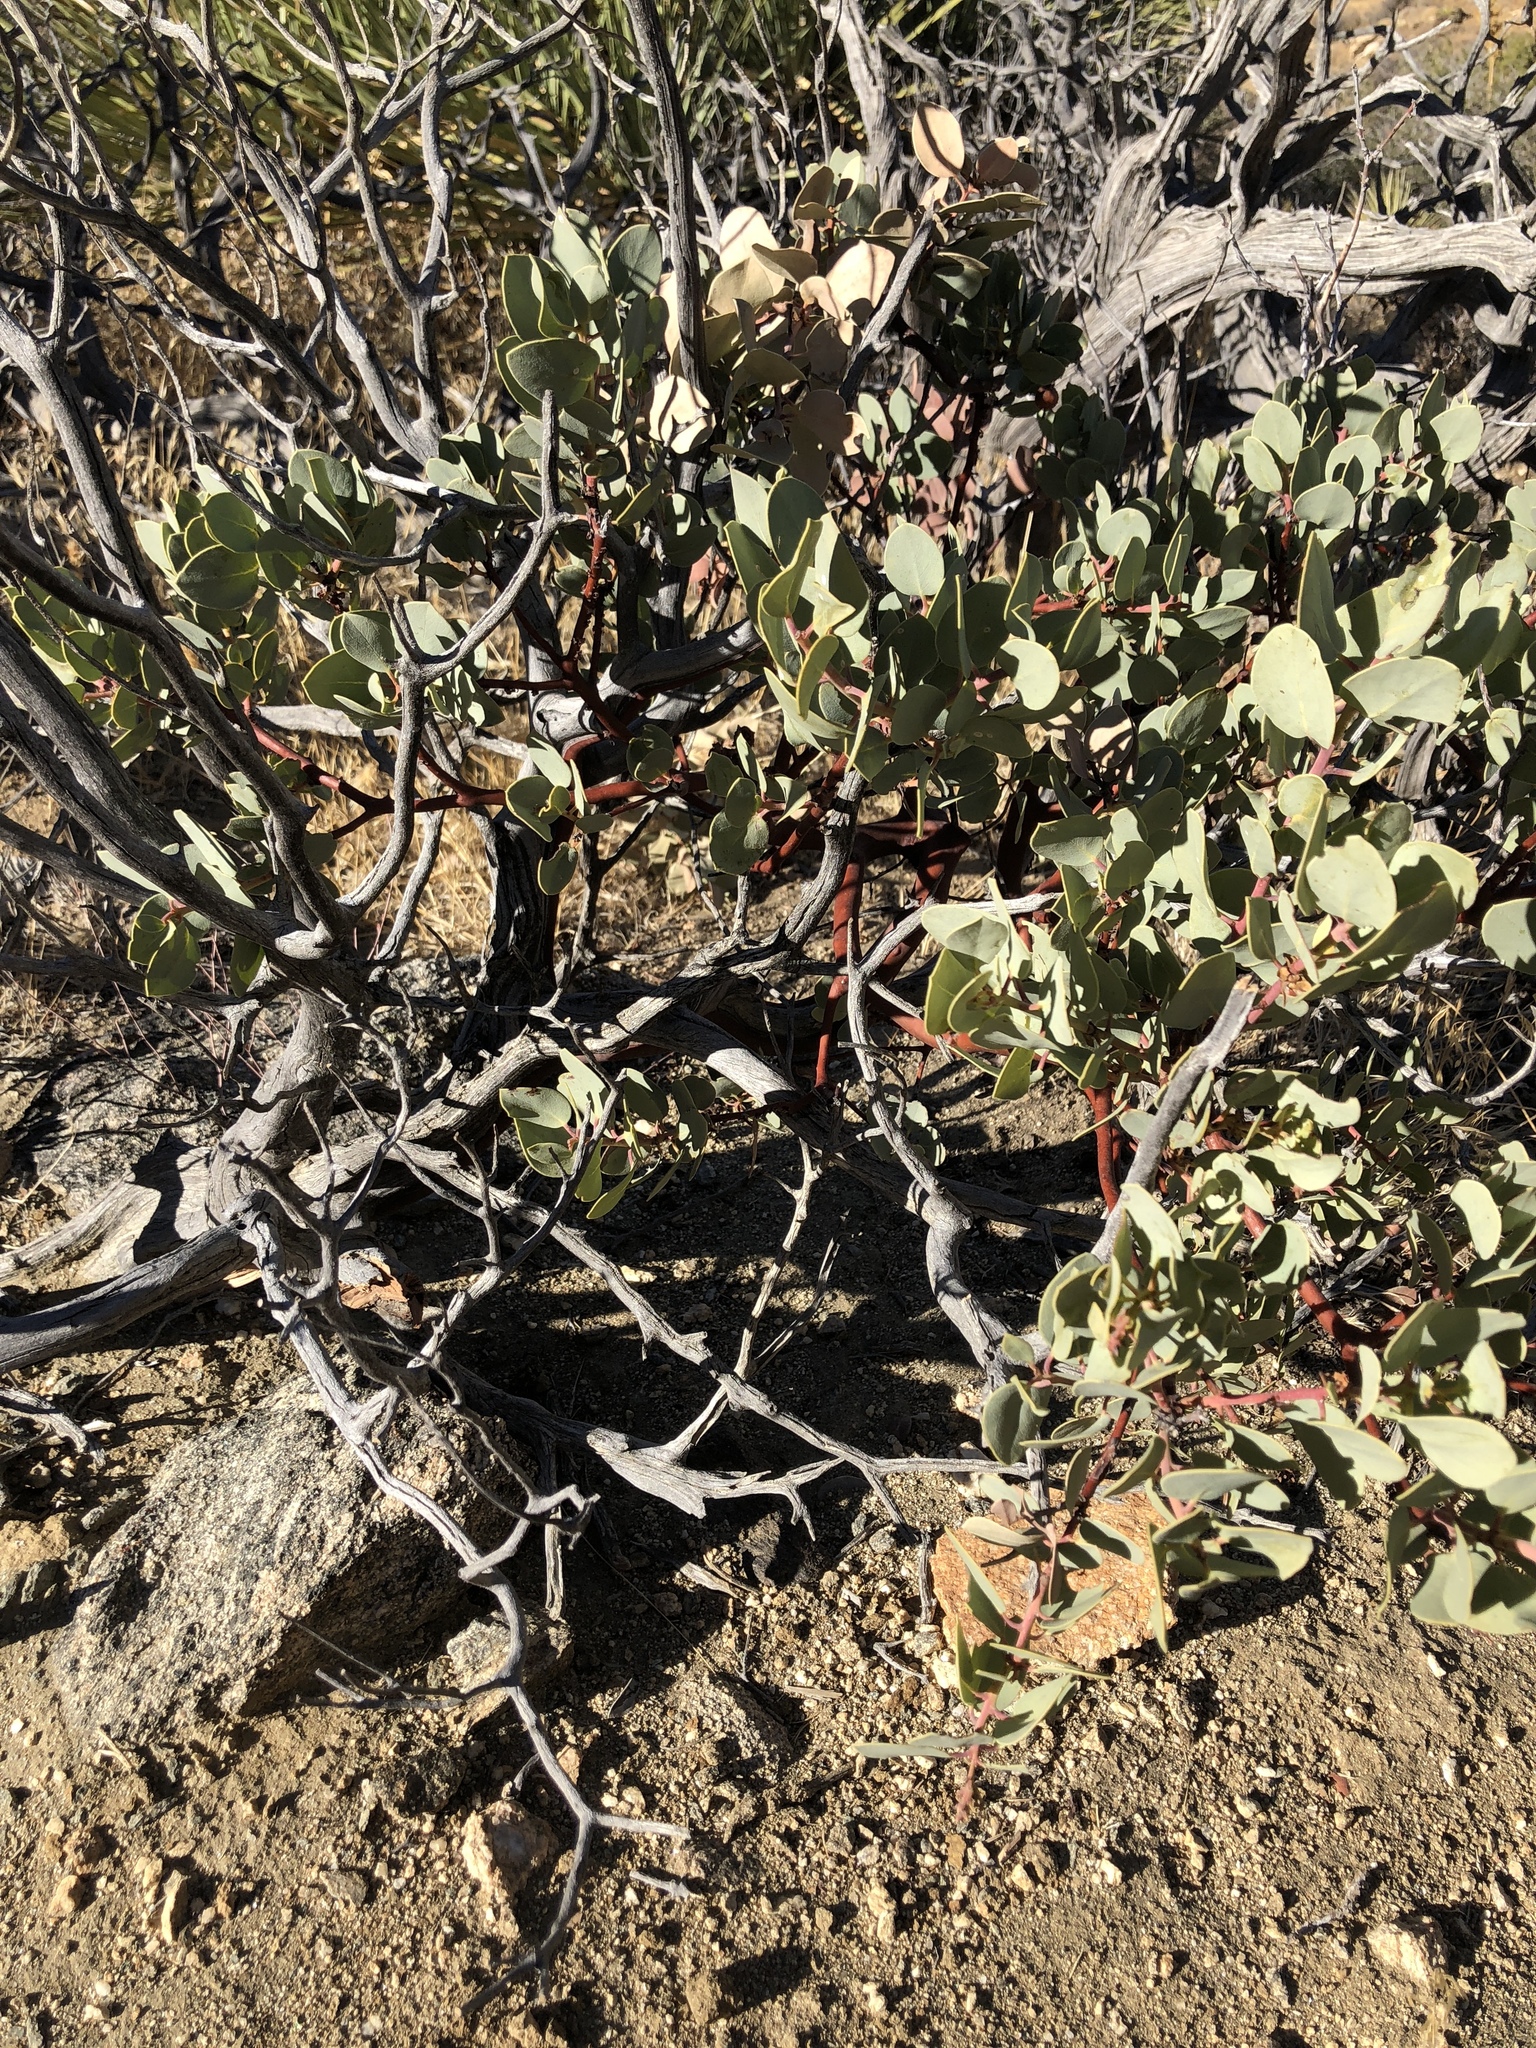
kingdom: Plantae
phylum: Tracheophyta
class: Magnoliopsida
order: Ericales
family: Ericaceae
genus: Arctostaphylos
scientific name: Arctostaphylos glauca
